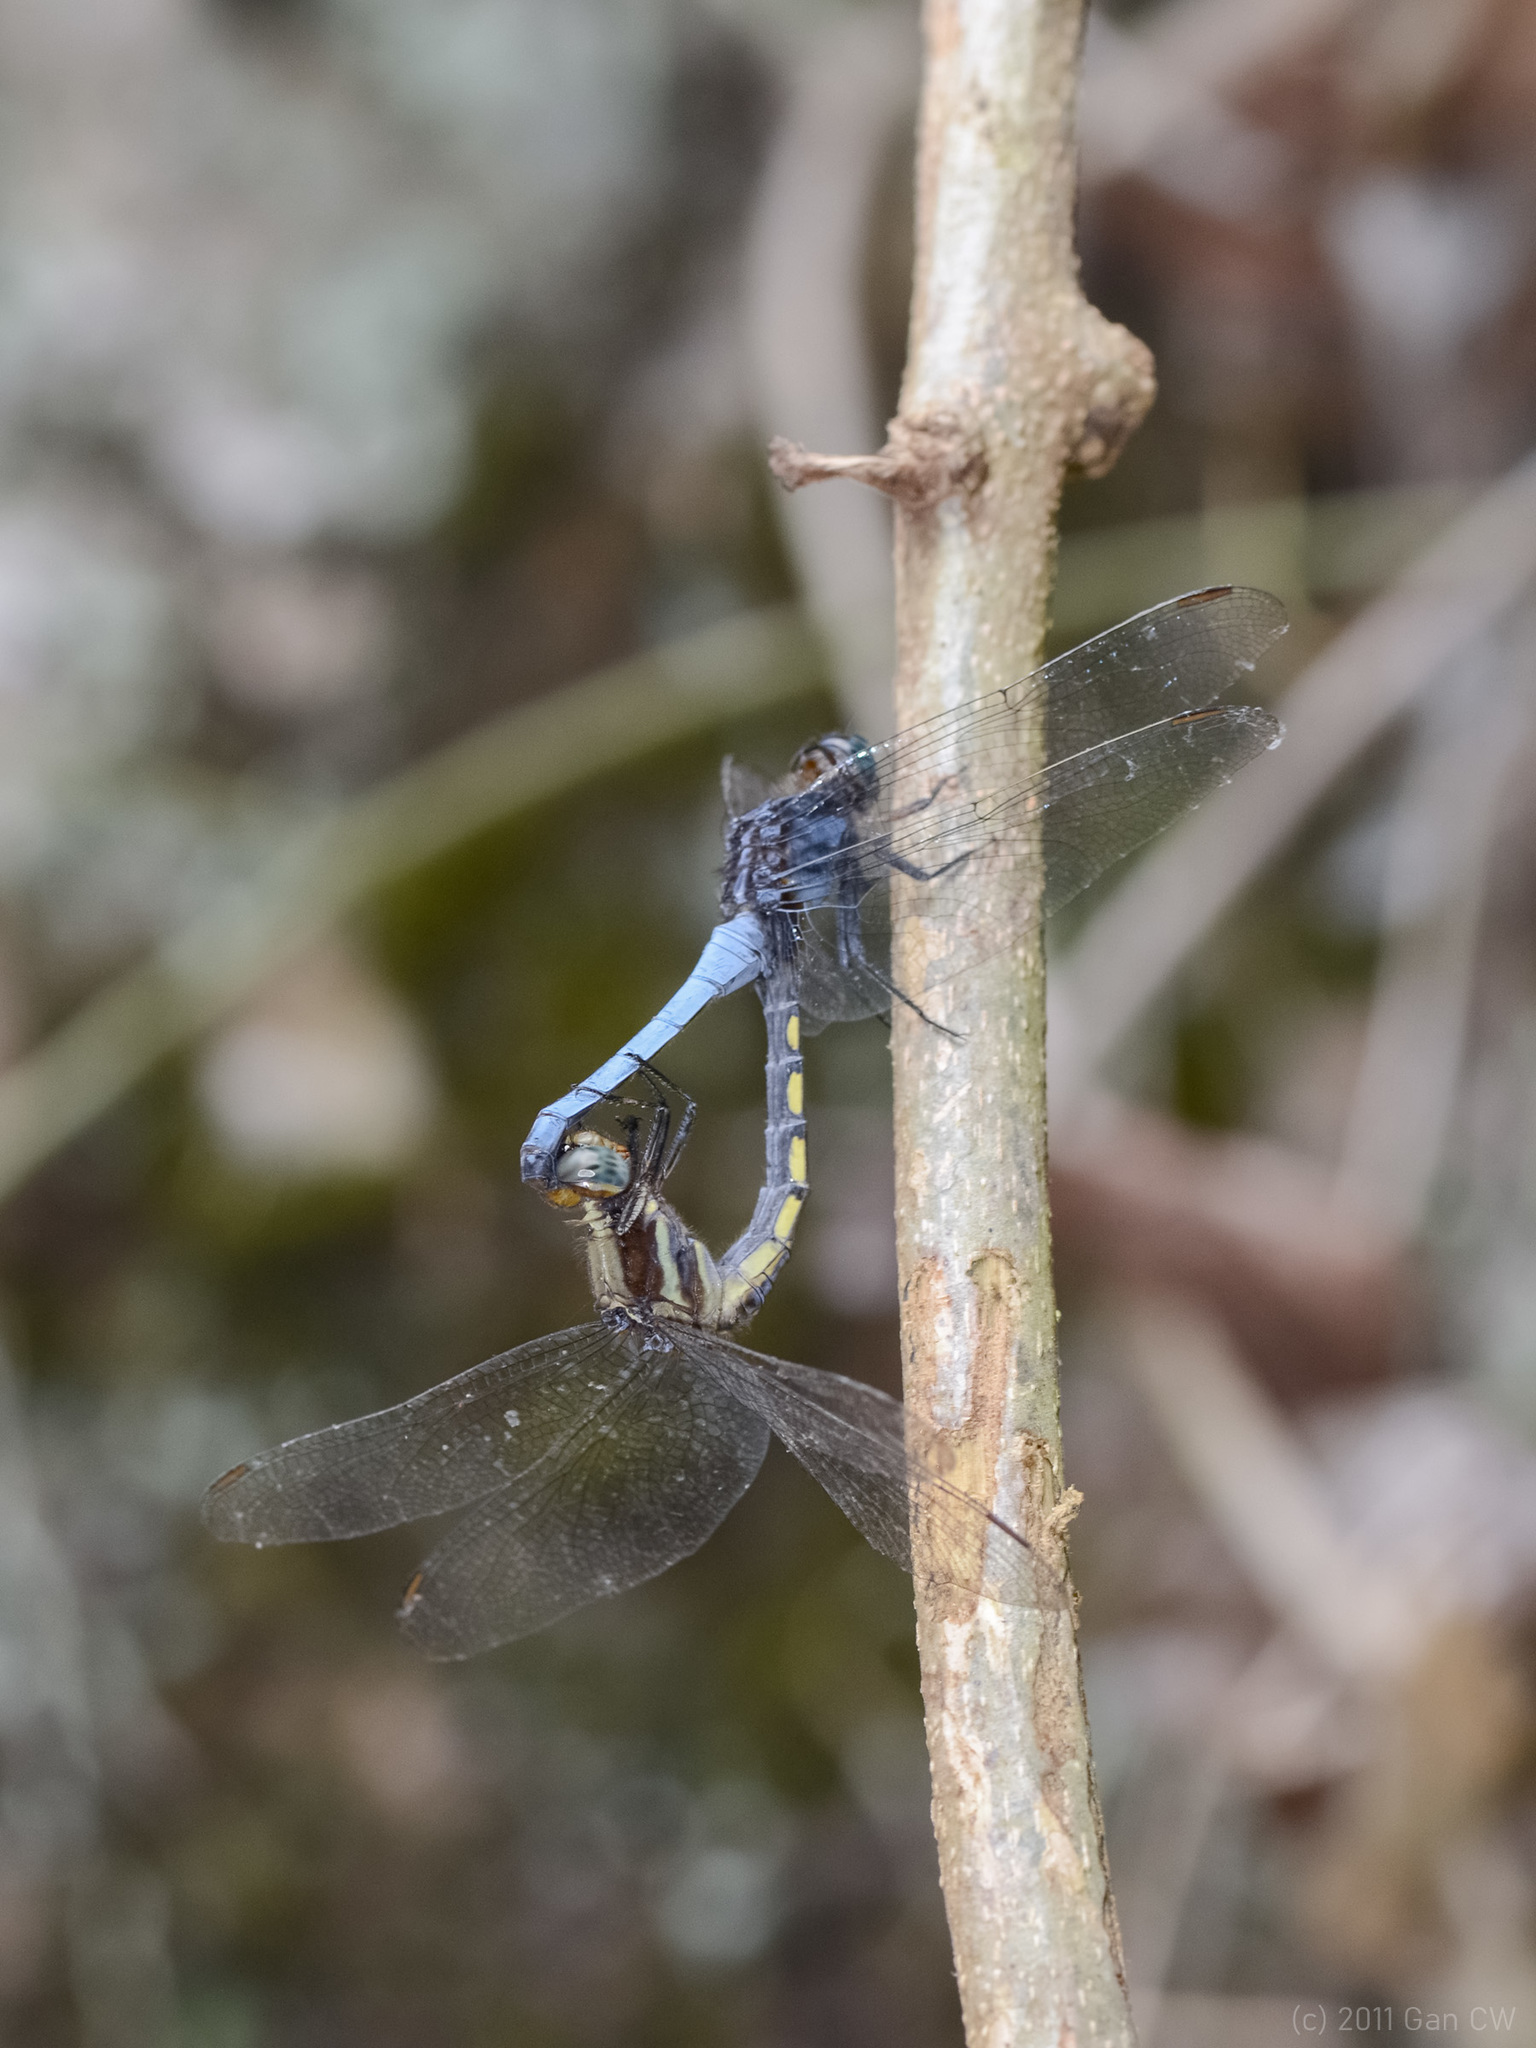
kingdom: Animalia
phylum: Arthropoda
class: Insecta
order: Odonata
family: Libellulidae
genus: Orthetrum
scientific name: Orthetrum glaucum
